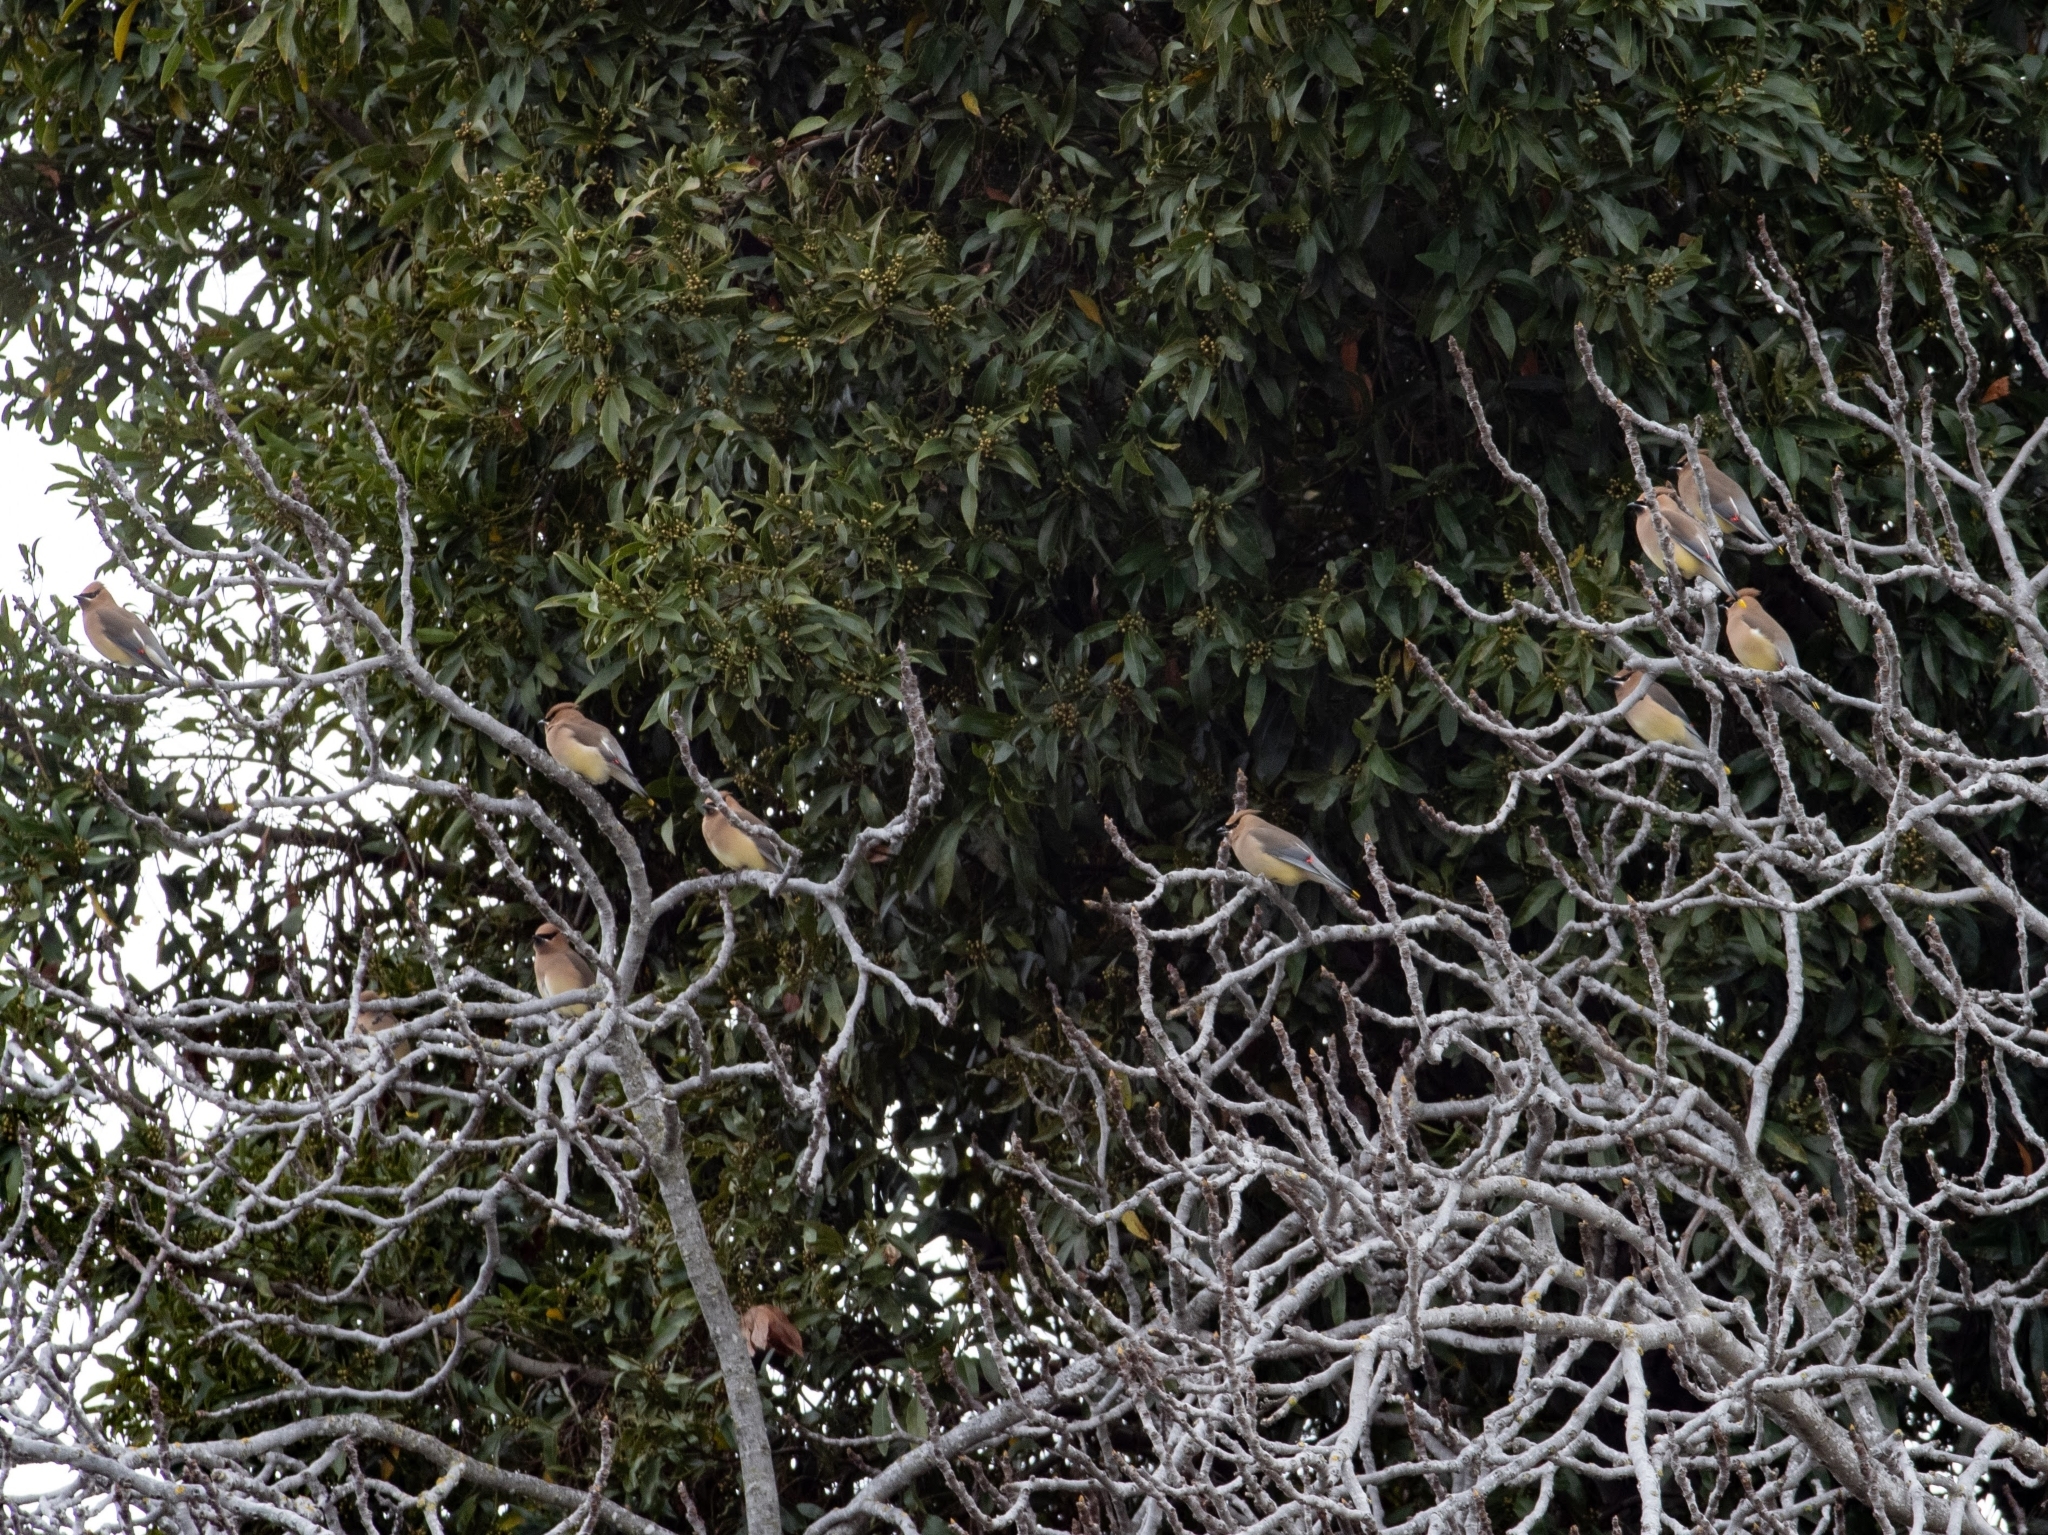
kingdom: Animalia
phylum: Chordata
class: Aves
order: Passeriformes
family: Bombycillidae
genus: Bombycilla
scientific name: Bombycilla cedrorum
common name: Cedar waxwing
